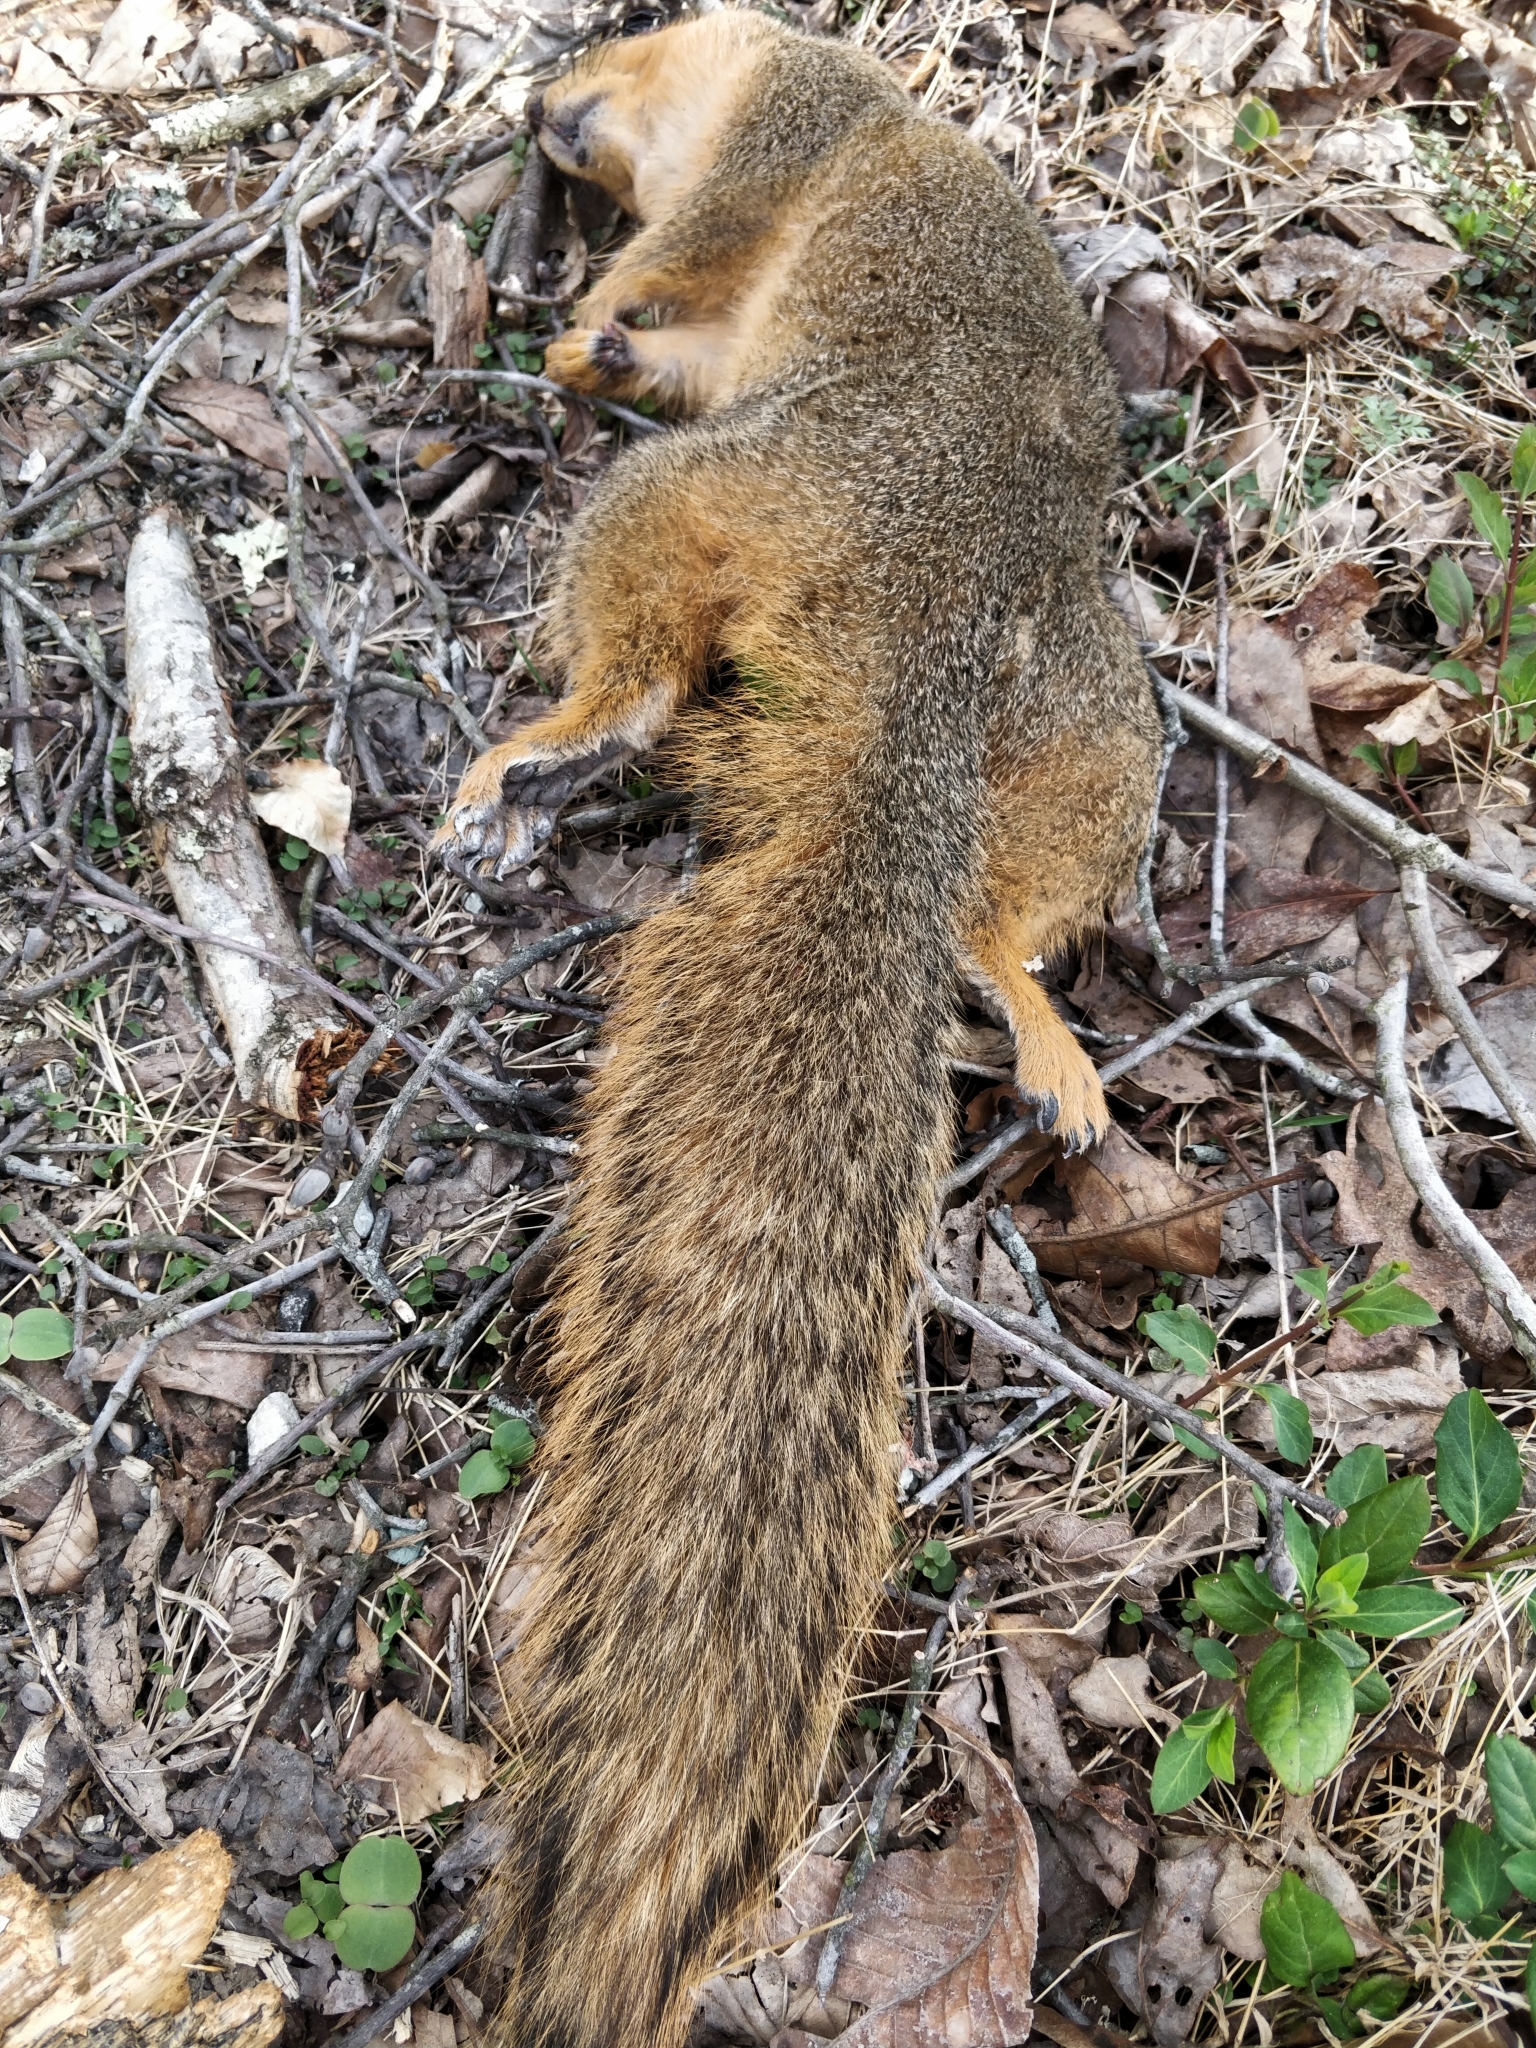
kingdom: Animalia
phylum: Chordata
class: Mammalia
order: Rodentia
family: Sciuridae
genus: Sciurus
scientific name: Sciurus niger
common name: Fox squirrel
